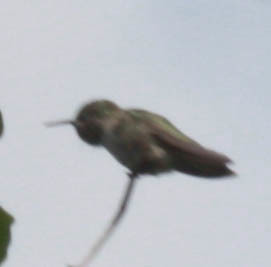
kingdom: Animalia
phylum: Chordata
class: Aves
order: Apodiformes
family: Trochilidae
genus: Calypte
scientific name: Calypte anna
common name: Anna's hummingbird
